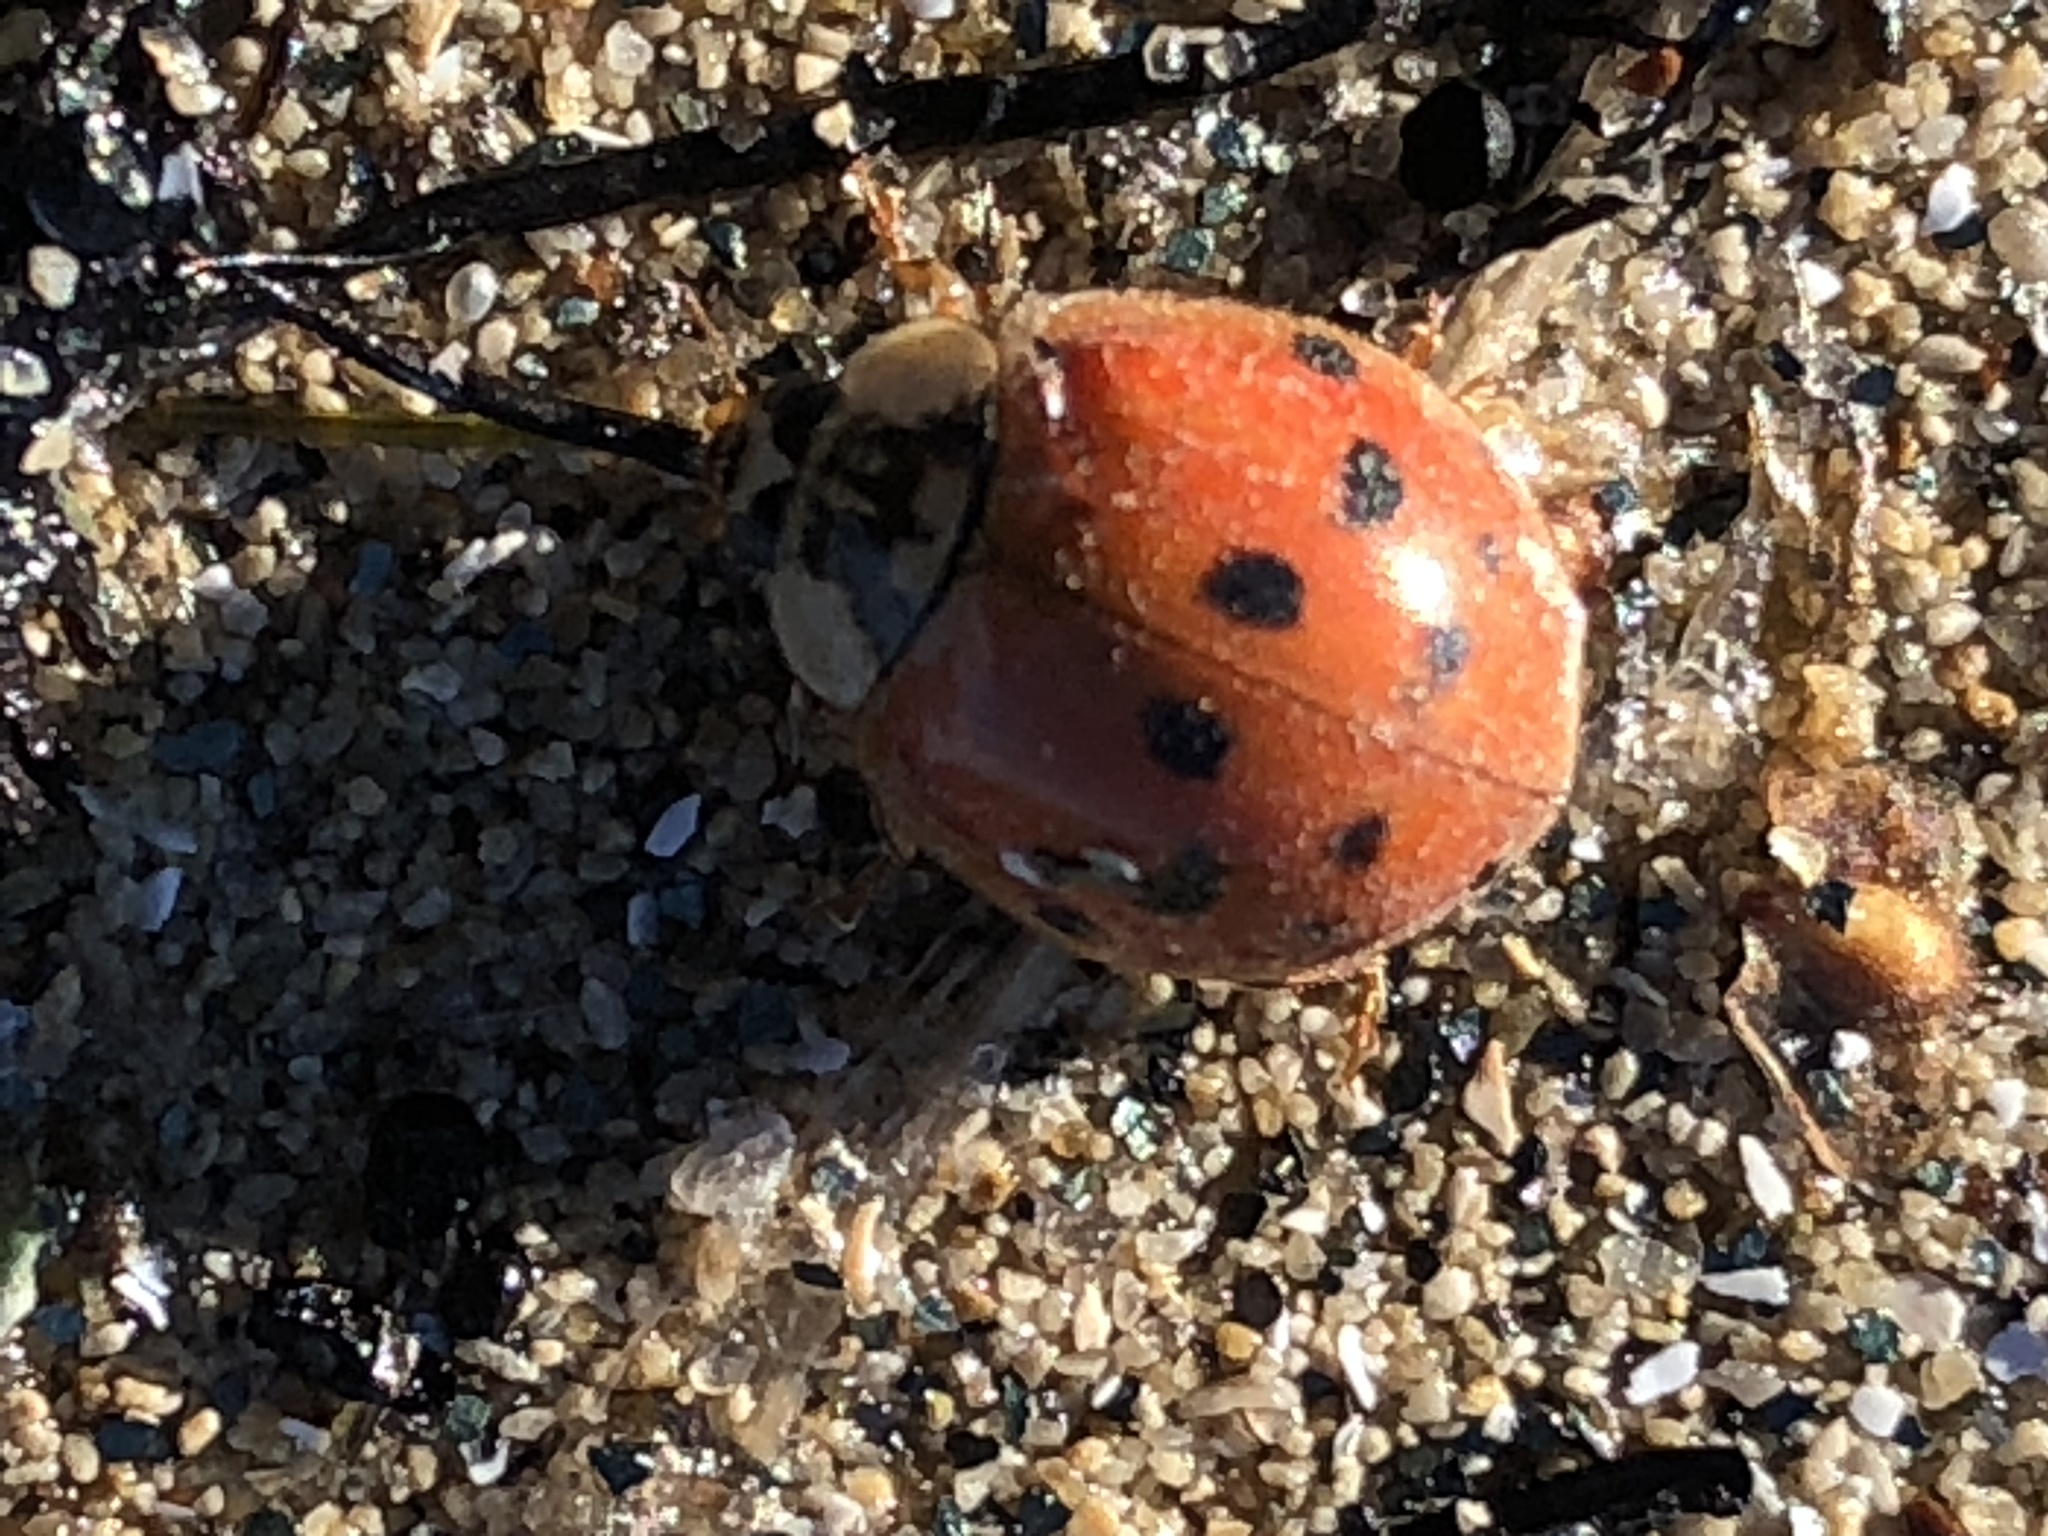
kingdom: Animalia
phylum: Arthropoda
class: Insecta
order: Coleoptera
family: Coccinellidae
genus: Harmonia
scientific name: Harmonia axyridis
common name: Harlequin ladybird
